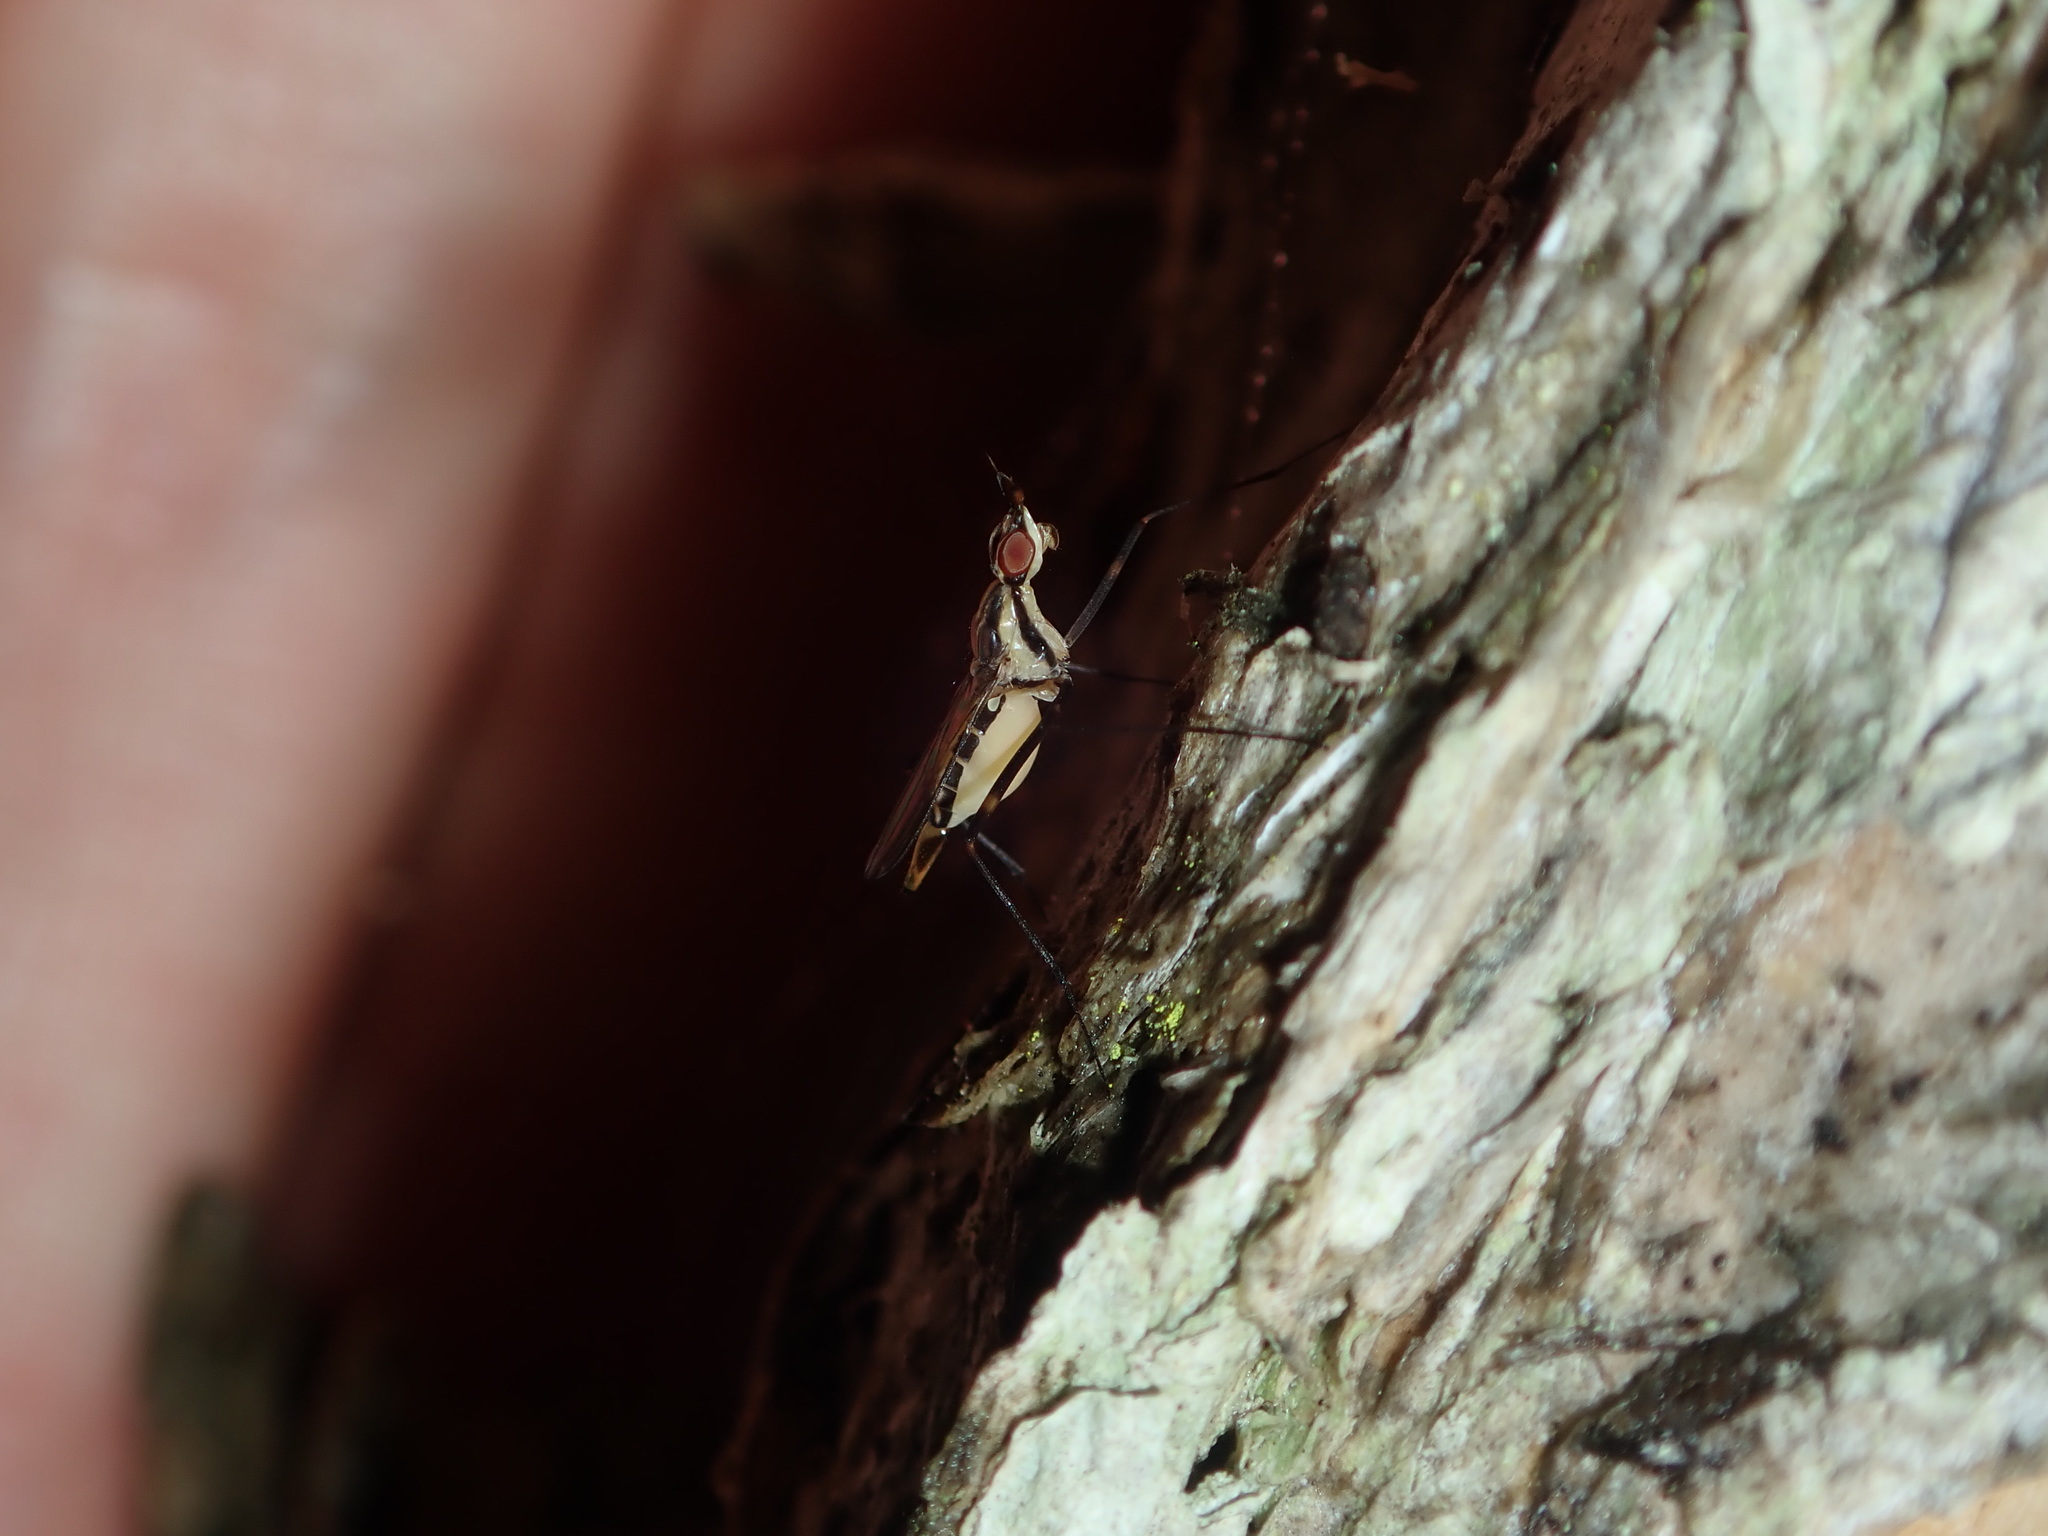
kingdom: Animalia
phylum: Arthropoda
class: Insecta
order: Diptera
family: Neriidae
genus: Derocephalus
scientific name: Derocephalus angusticollis
